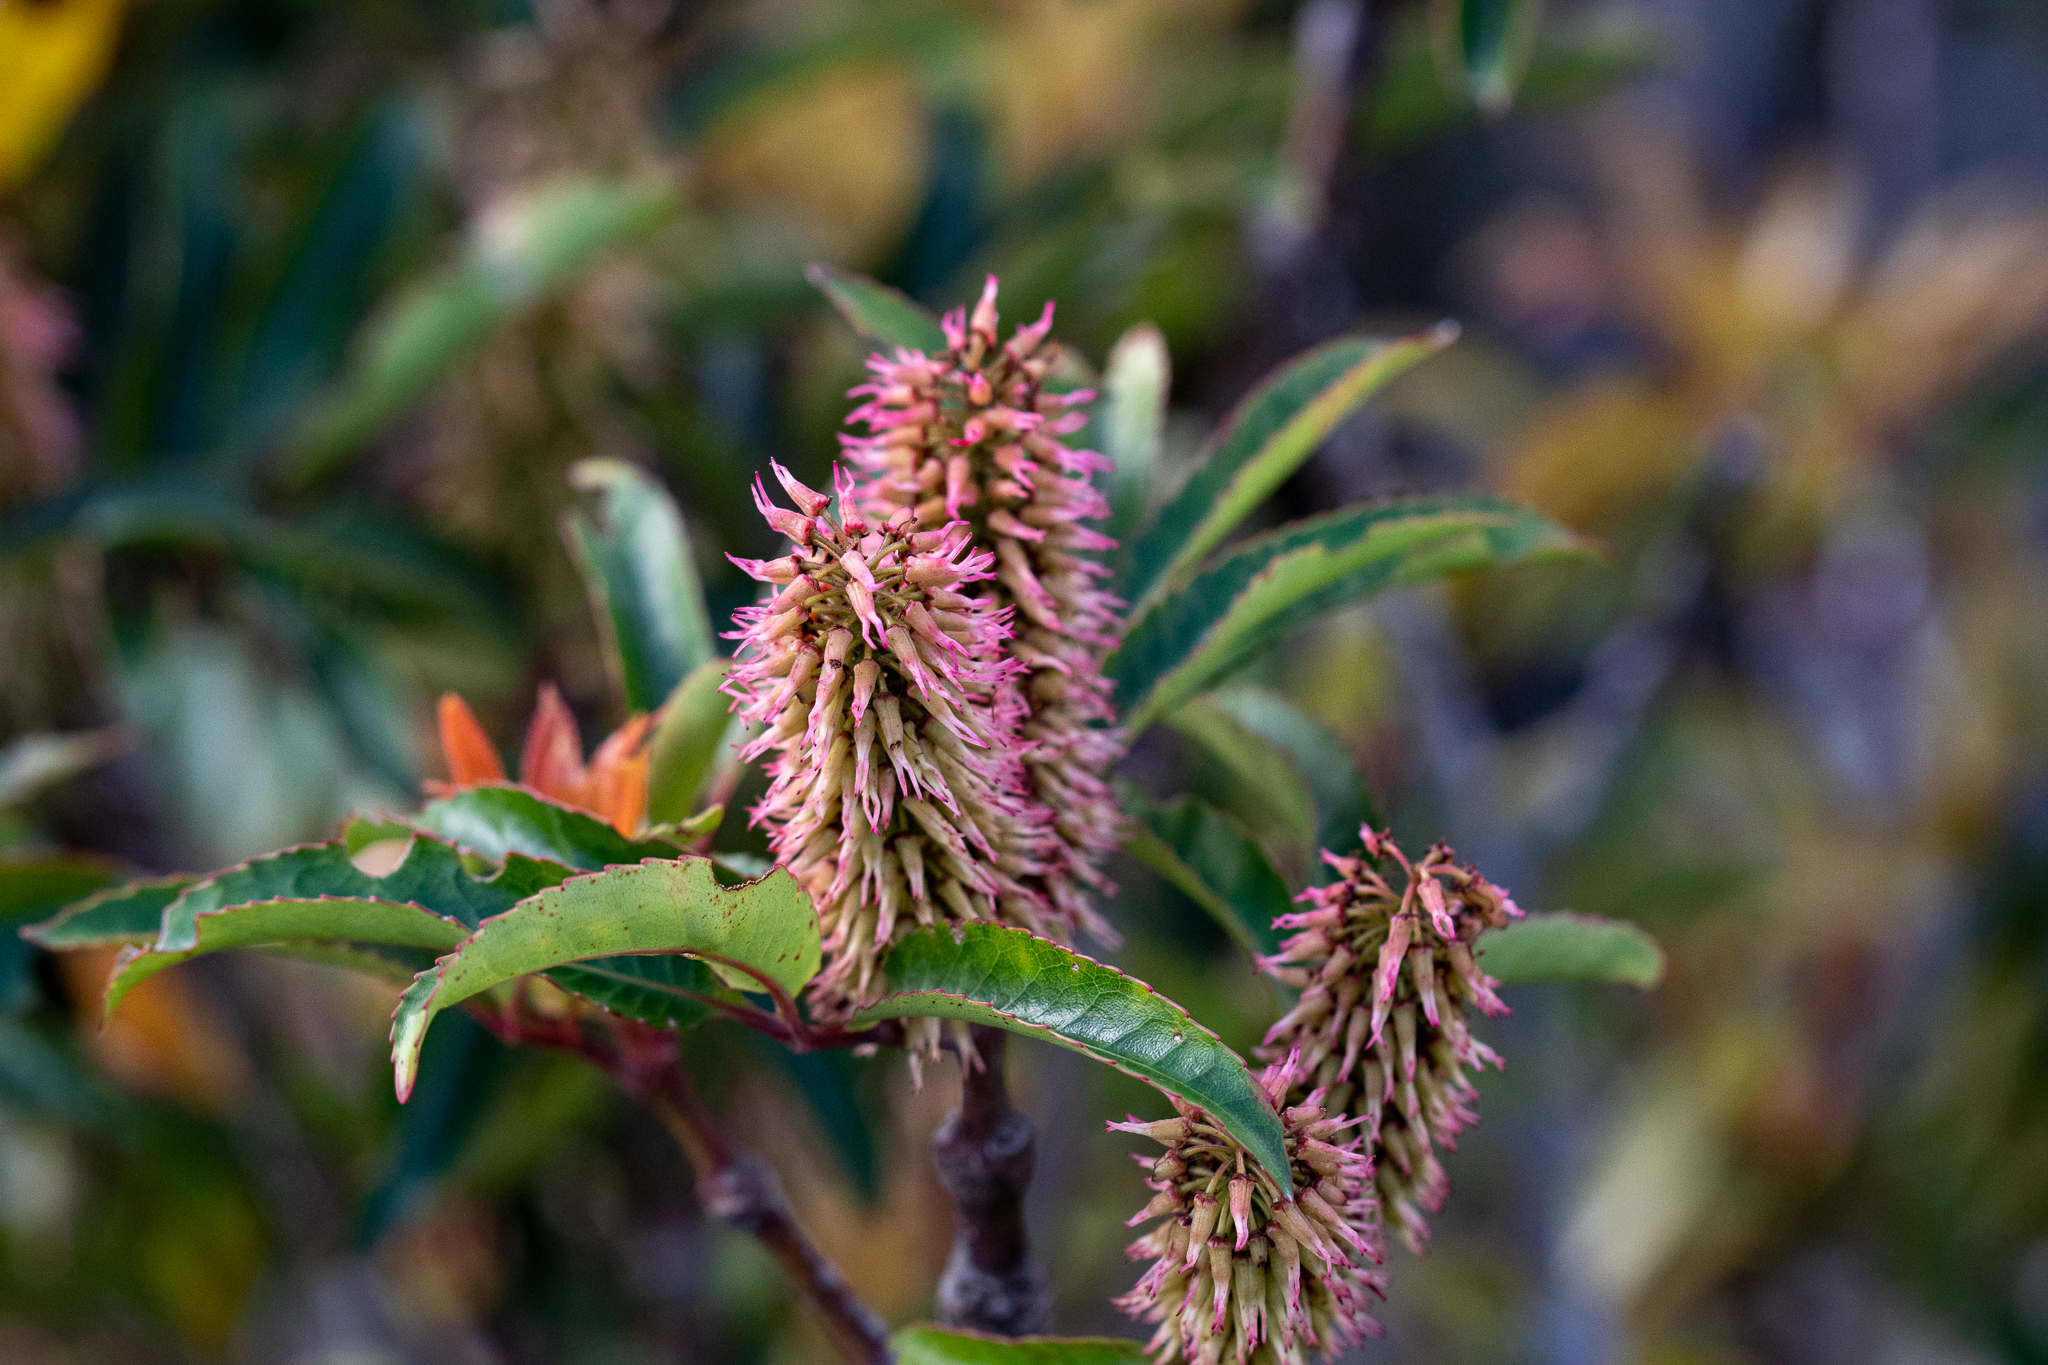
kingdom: Plantae
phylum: Tracheophyta
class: Magnoliopsida
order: Oxalidales
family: Cunoniaceae
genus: Cunonia
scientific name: Cunonia capensis
